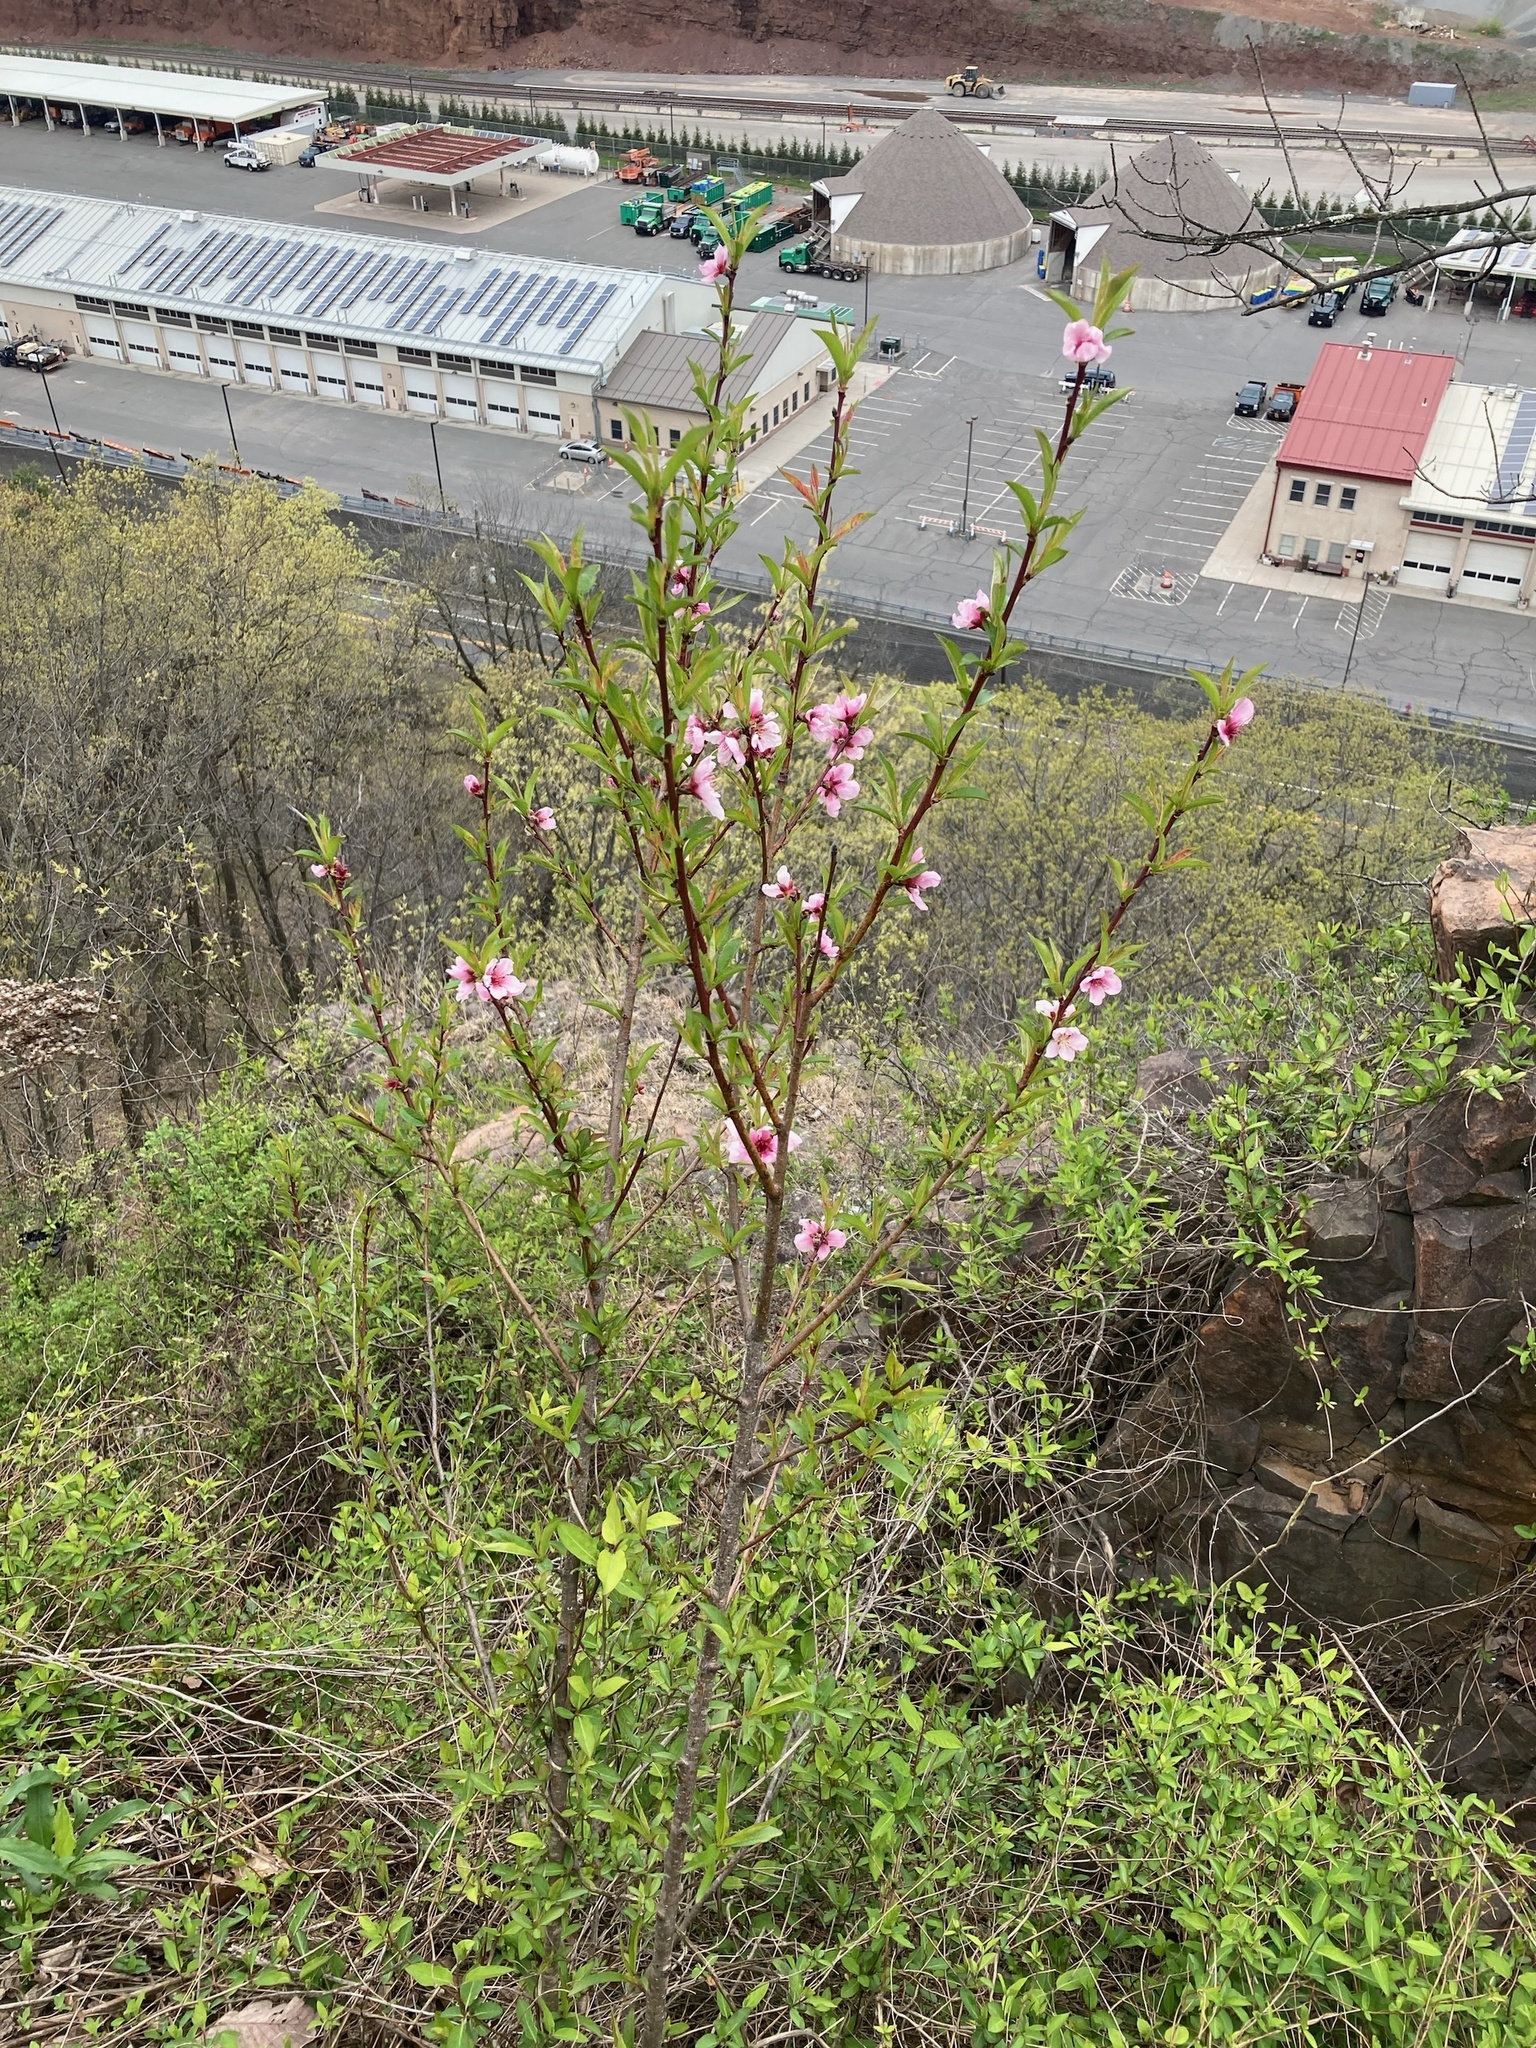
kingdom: Plantae
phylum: Tracheophyta
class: Magnoliopsida
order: Rosales
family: Rosaceae
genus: Prunus
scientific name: Prunus persica
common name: Peach
